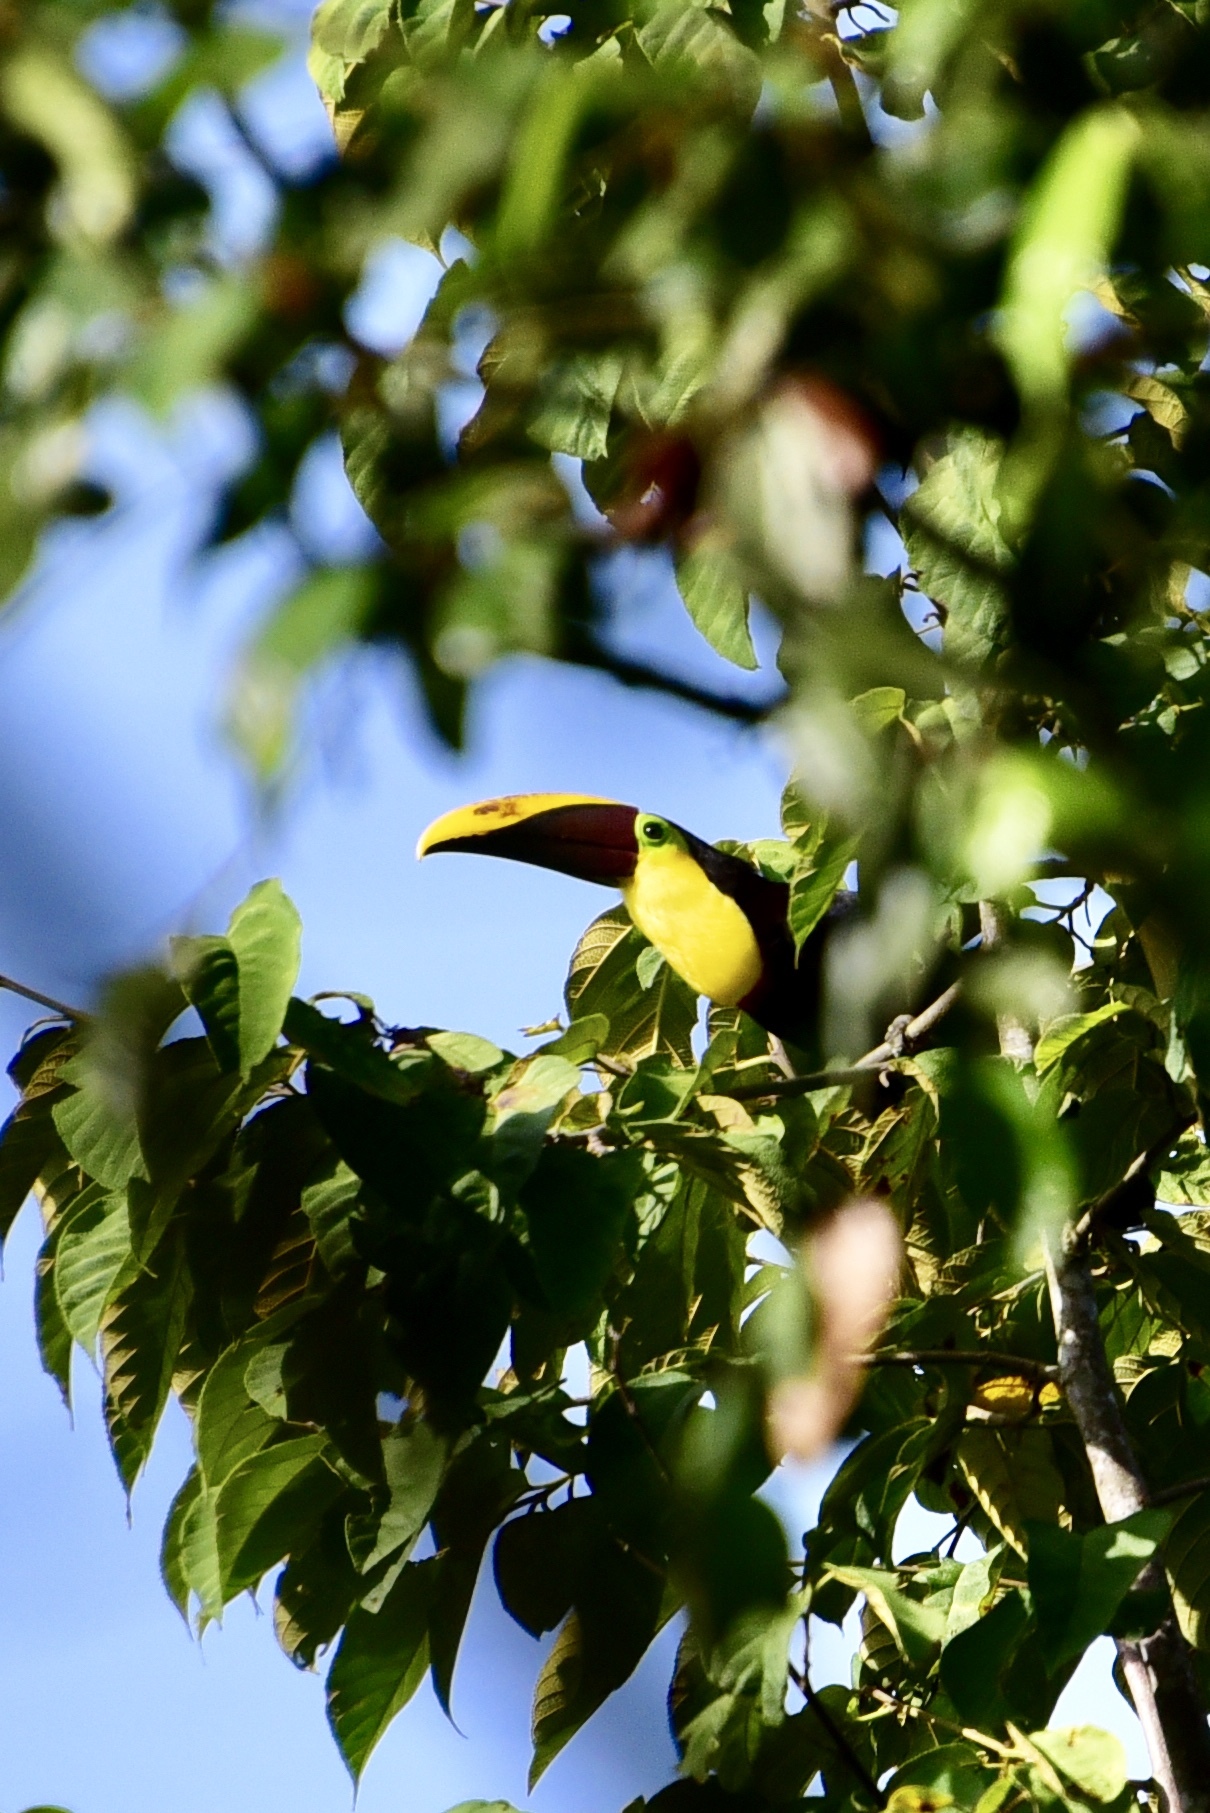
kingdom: Animalia
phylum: Chordata
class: Aves
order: Piciformes
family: Ramphastidae
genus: Ramphastos
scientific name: Ramphastos ambiguus
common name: Yellow-throated toucan
